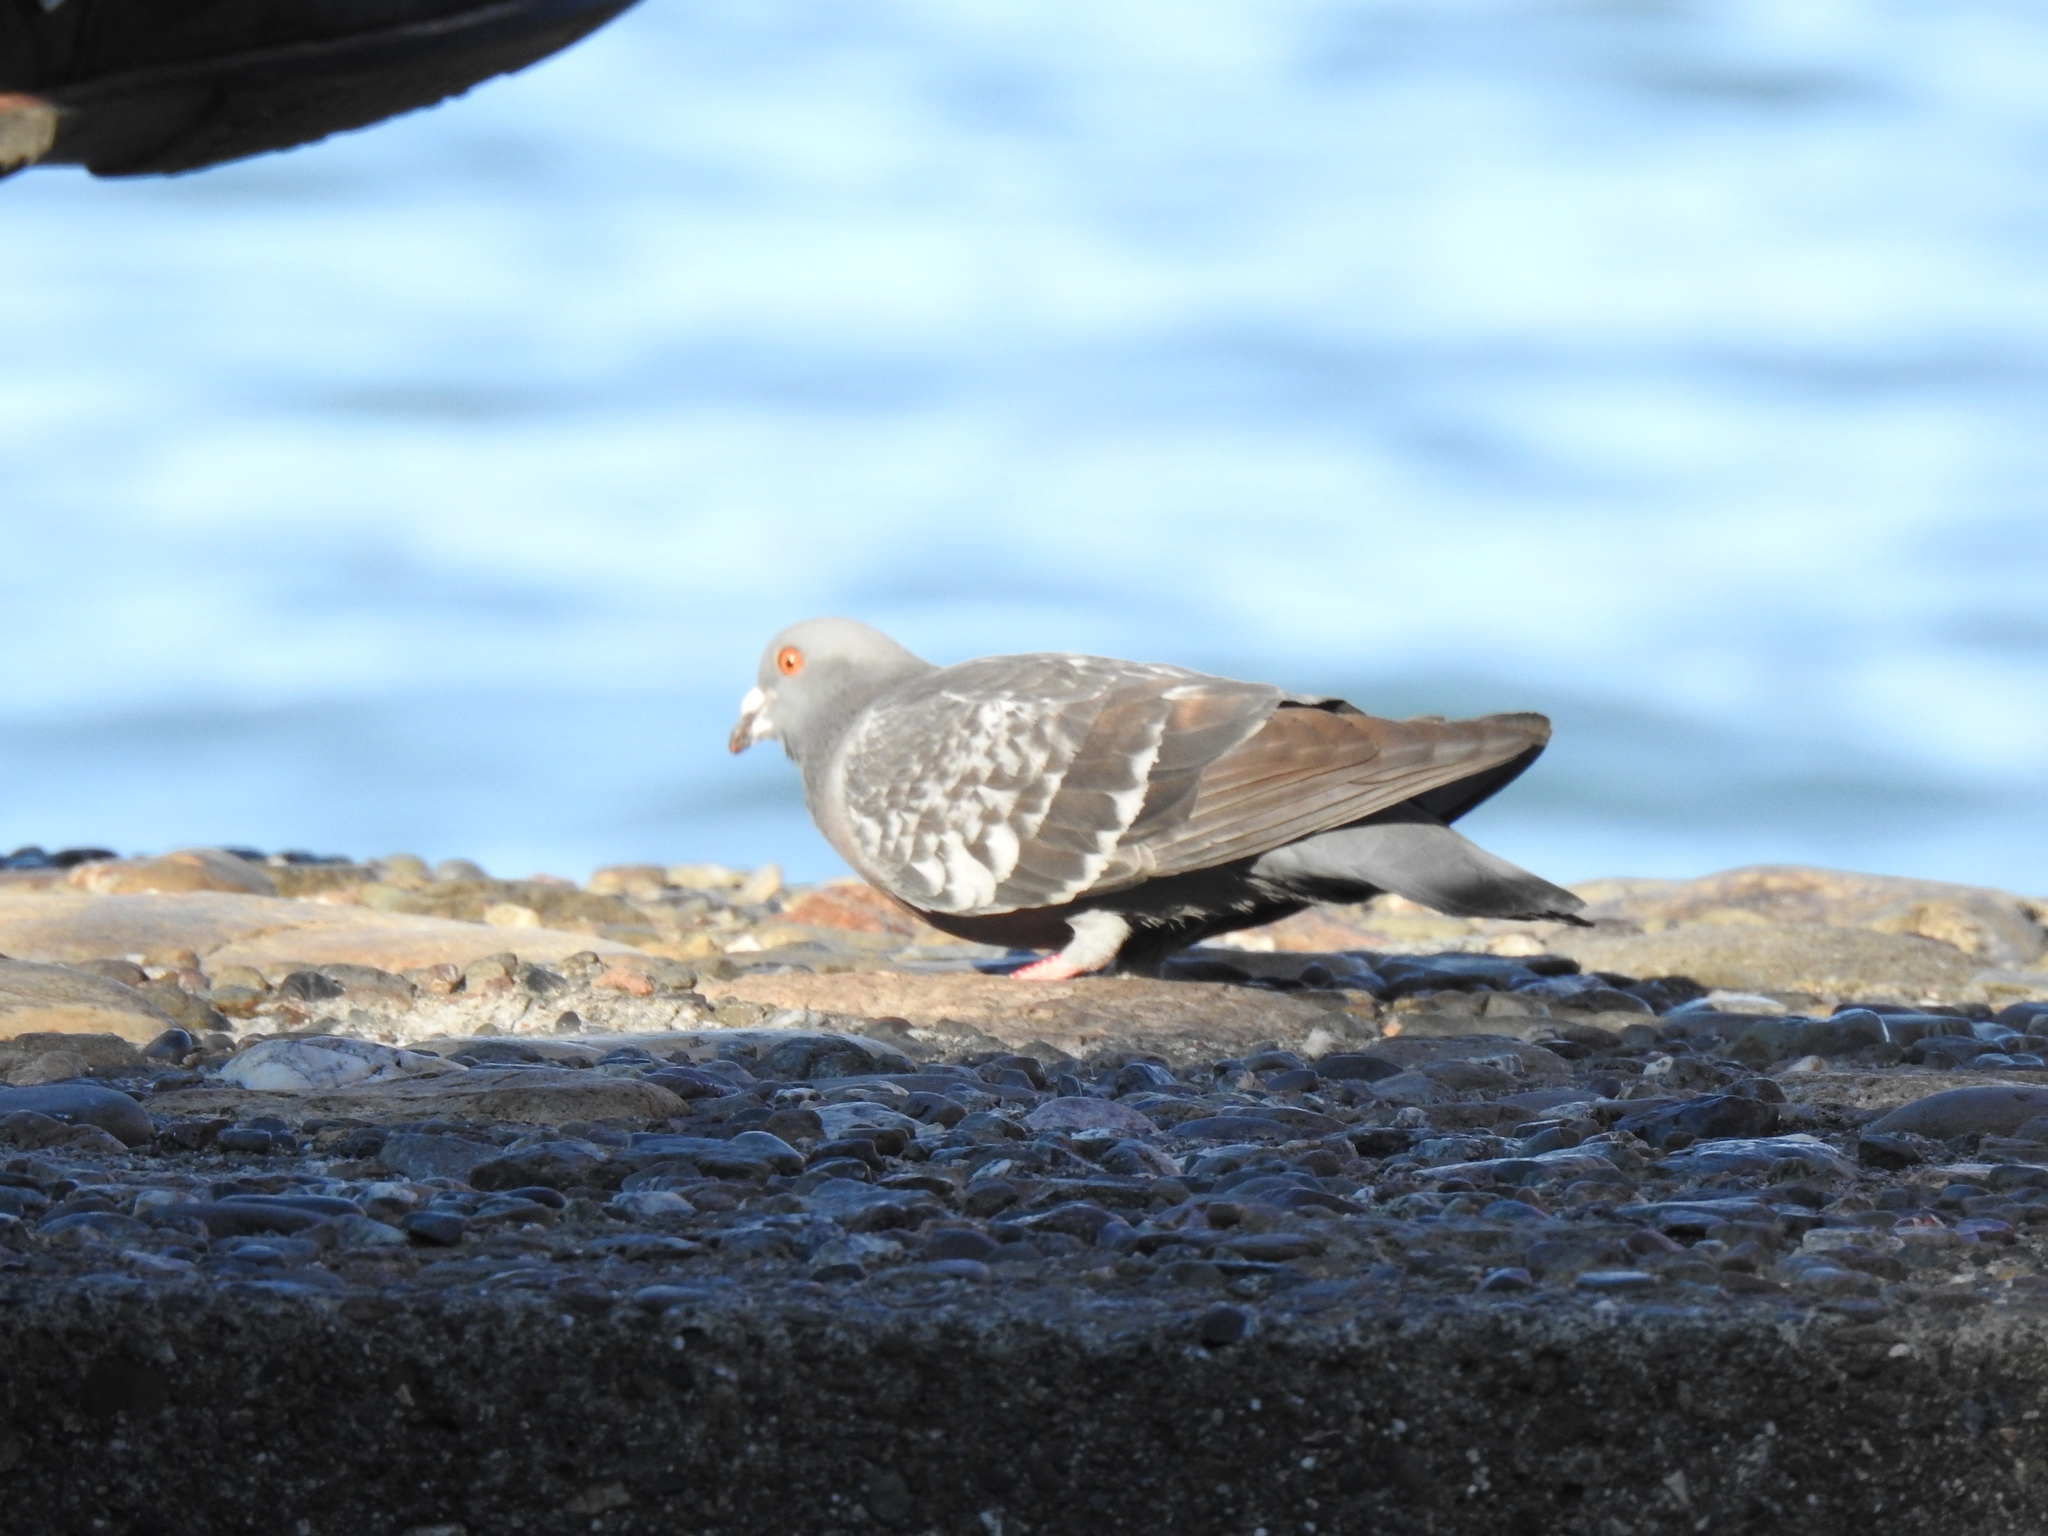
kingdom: Animalia
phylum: Chordata
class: Aves
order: Columbiformes
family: Columbidae
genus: Columba
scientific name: Columba livia
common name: Rock pigeon
